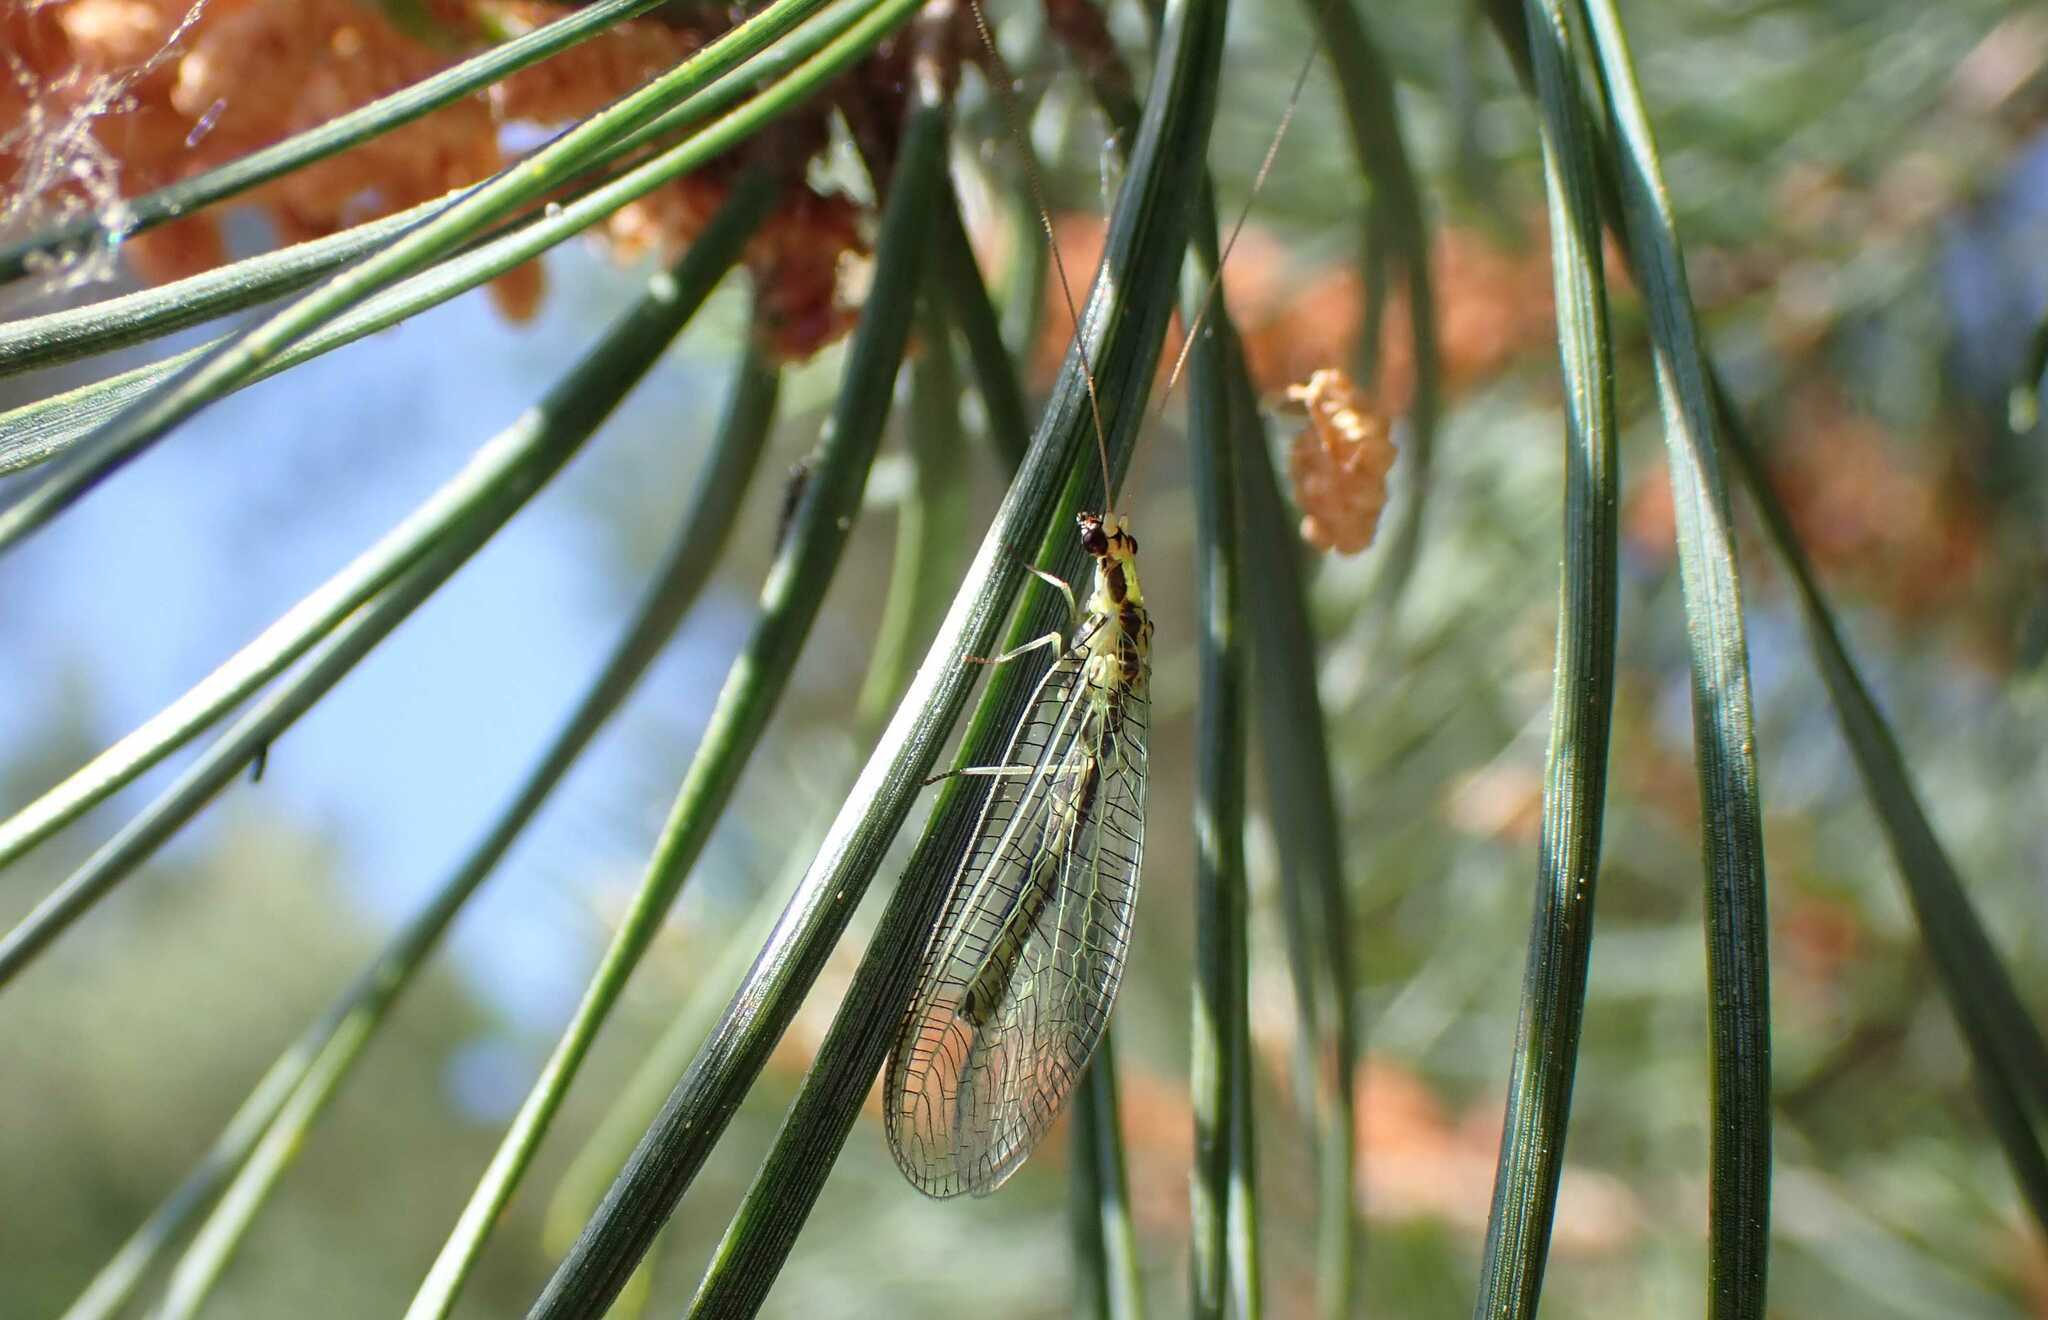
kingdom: Animalia
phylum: Arthropoda
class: Insecta
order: Neuroptera
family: Chrysopidae
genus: Chrysopa
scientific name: Chrysopa dorsalis
